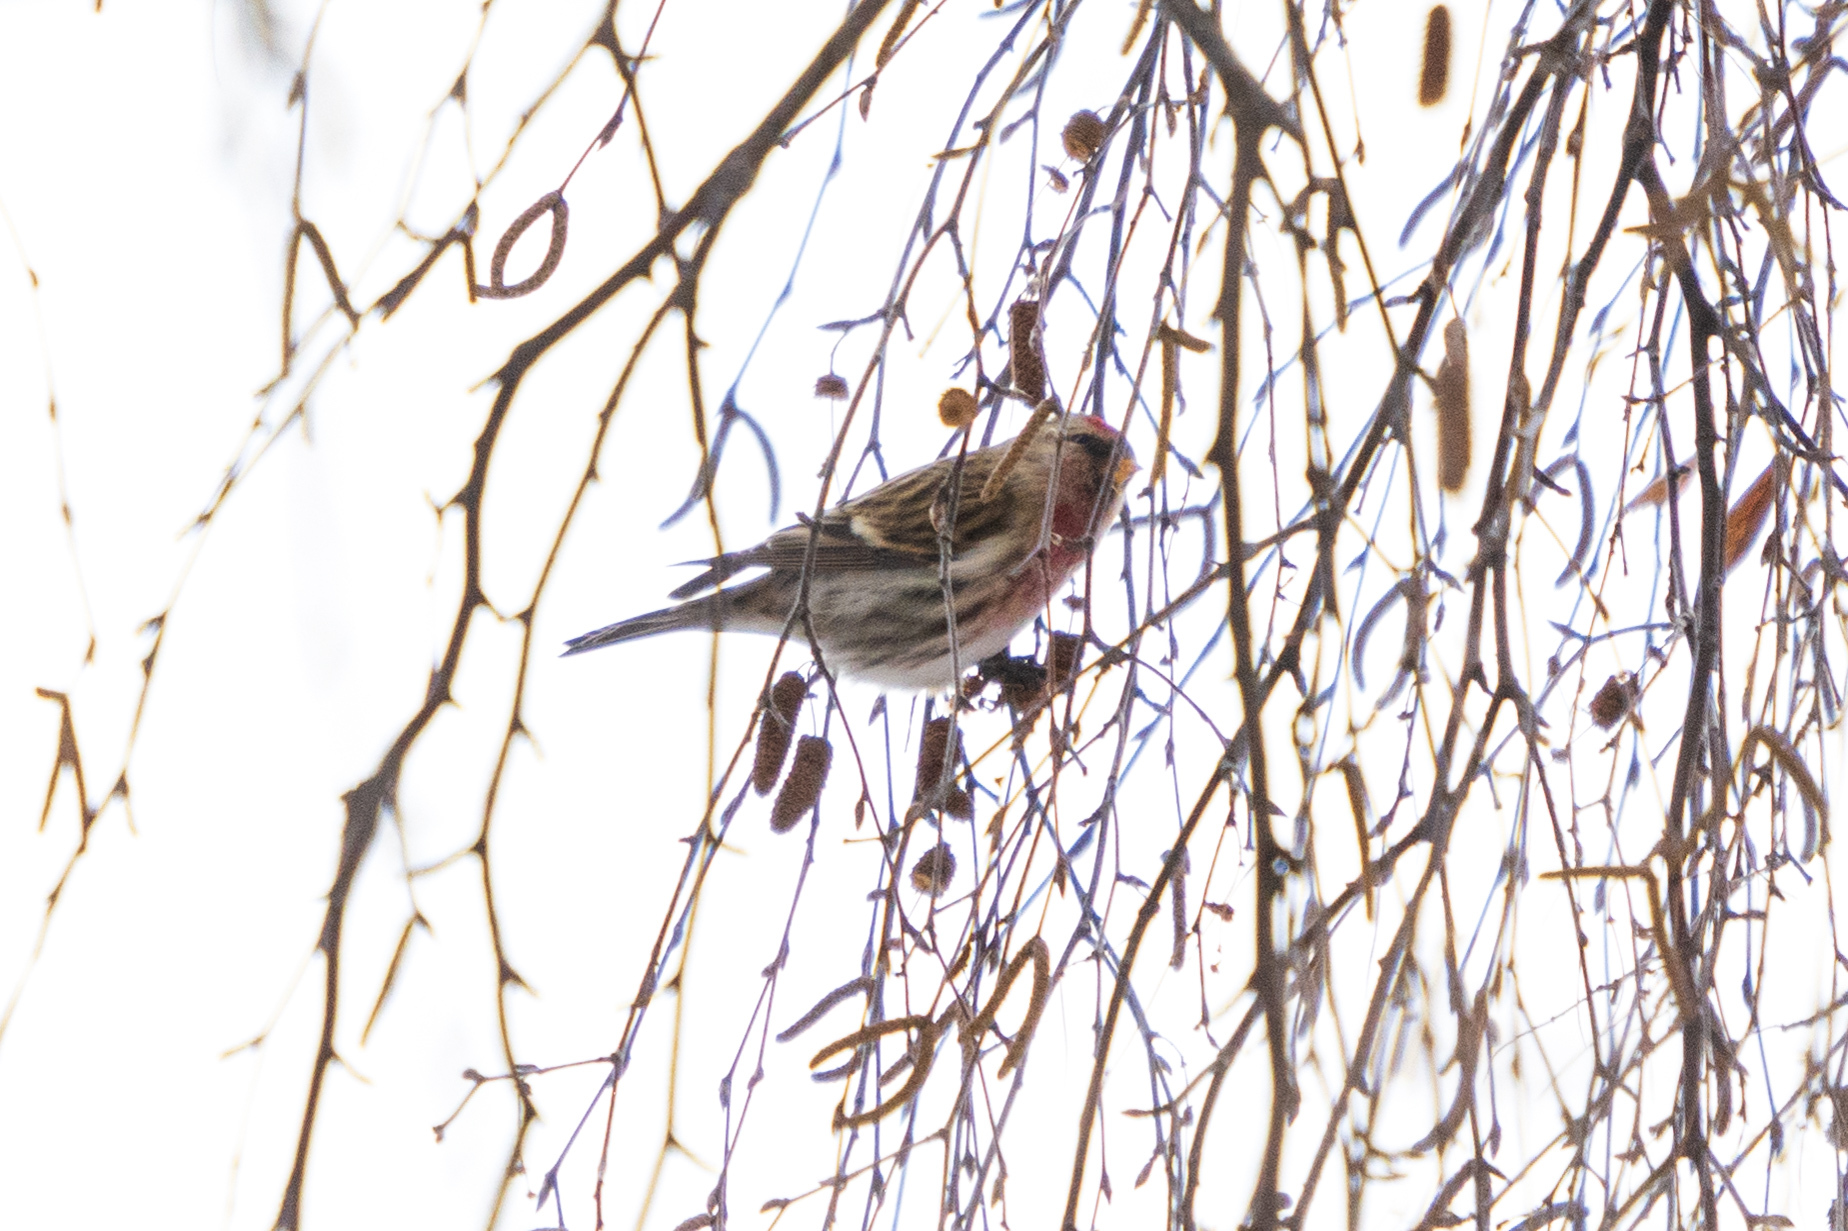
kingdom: Animalia
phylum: Chordata
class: Aves
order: Passeriformes
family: Fringillidae
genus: Acanthis
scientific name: Acanthis flammea
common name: Common redpoll
